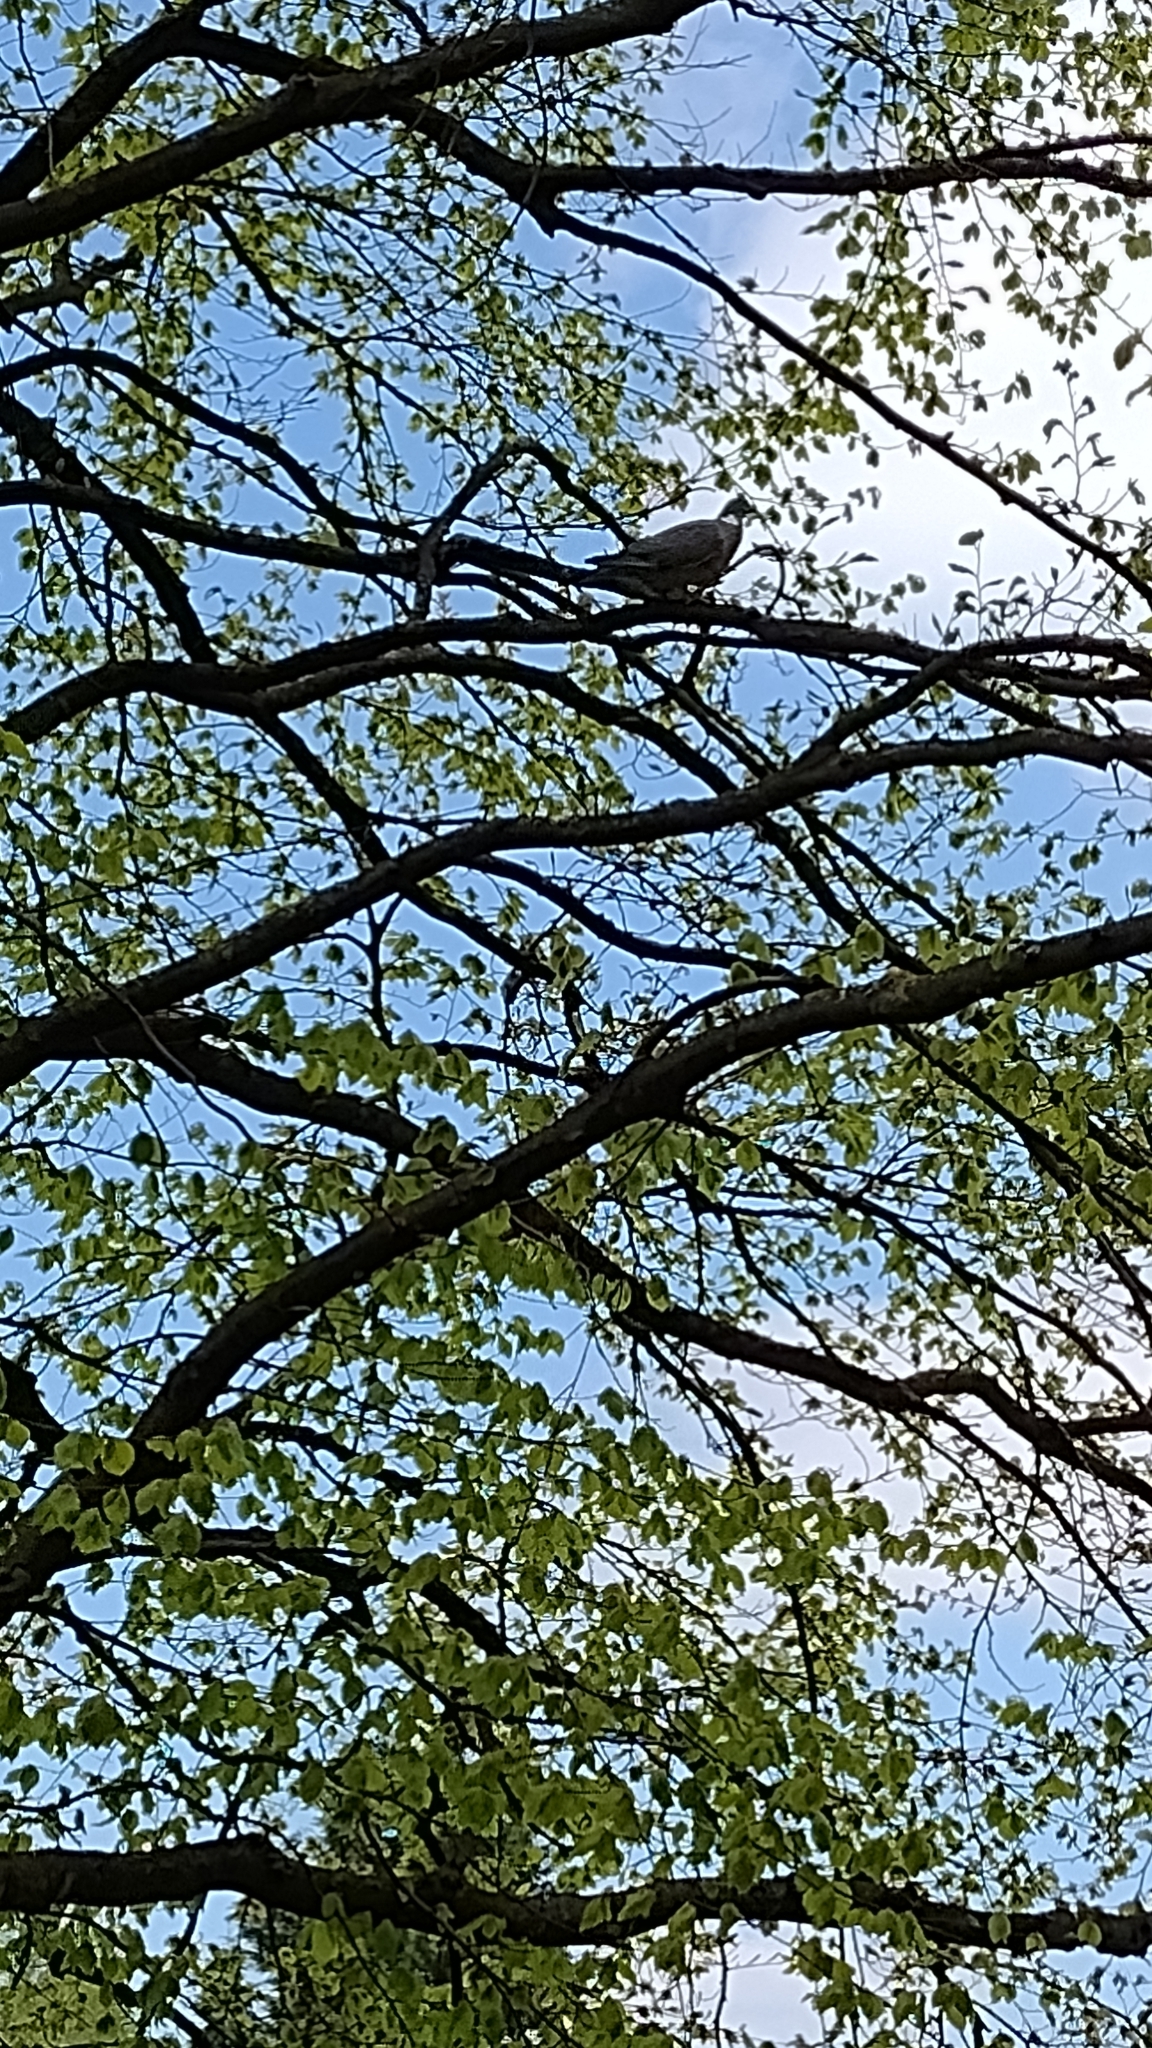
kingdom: Animalia
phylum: Chordata
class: Aves
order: Columbiformes
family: Columbidae
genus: Columba
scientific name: Columba palumbus
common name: Common wood pigeon
